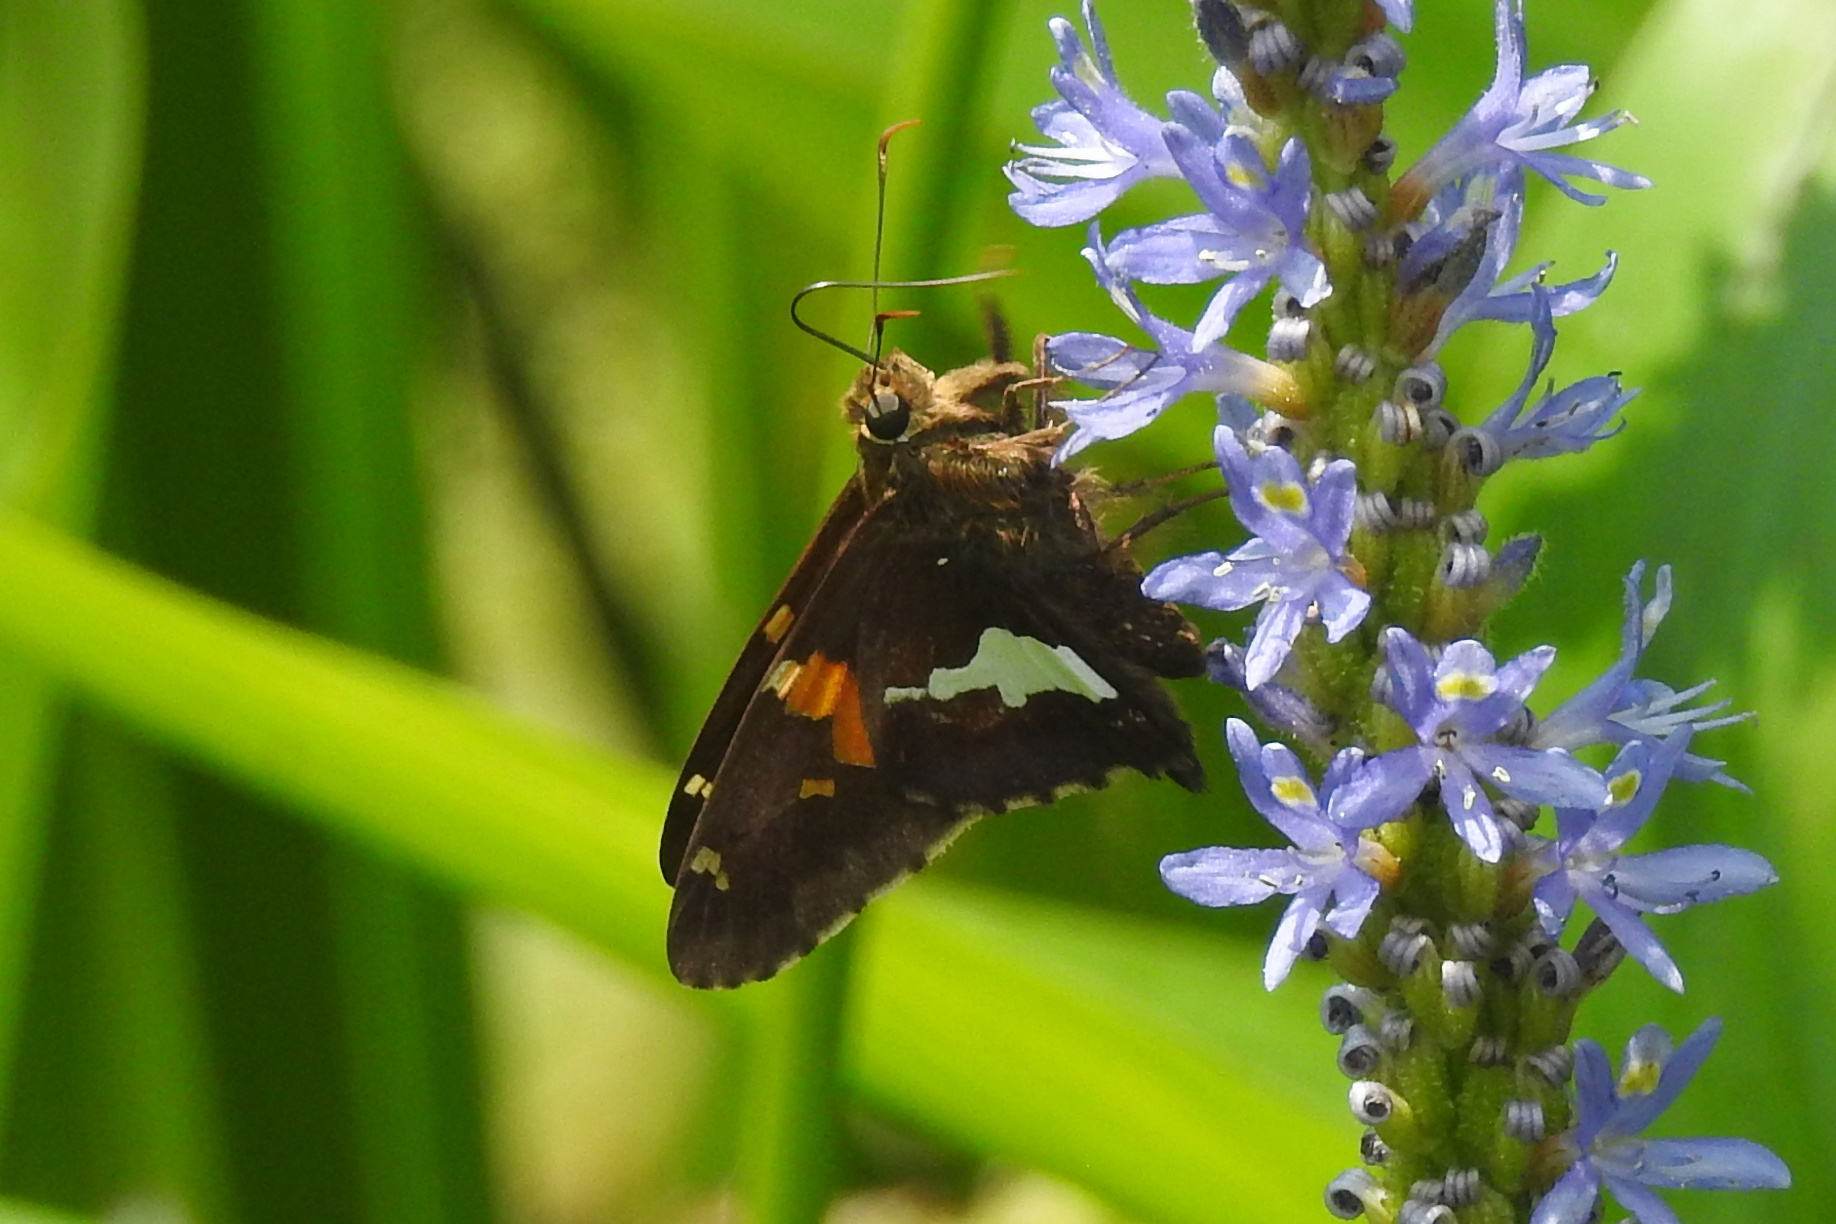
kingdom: Animalia
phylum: Arthropoda
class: Insecta
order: Lepidoptera
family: Hesperiidae
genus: Epargyreus
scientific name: Epargyreus clarus
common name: Silver-spotted skipper
